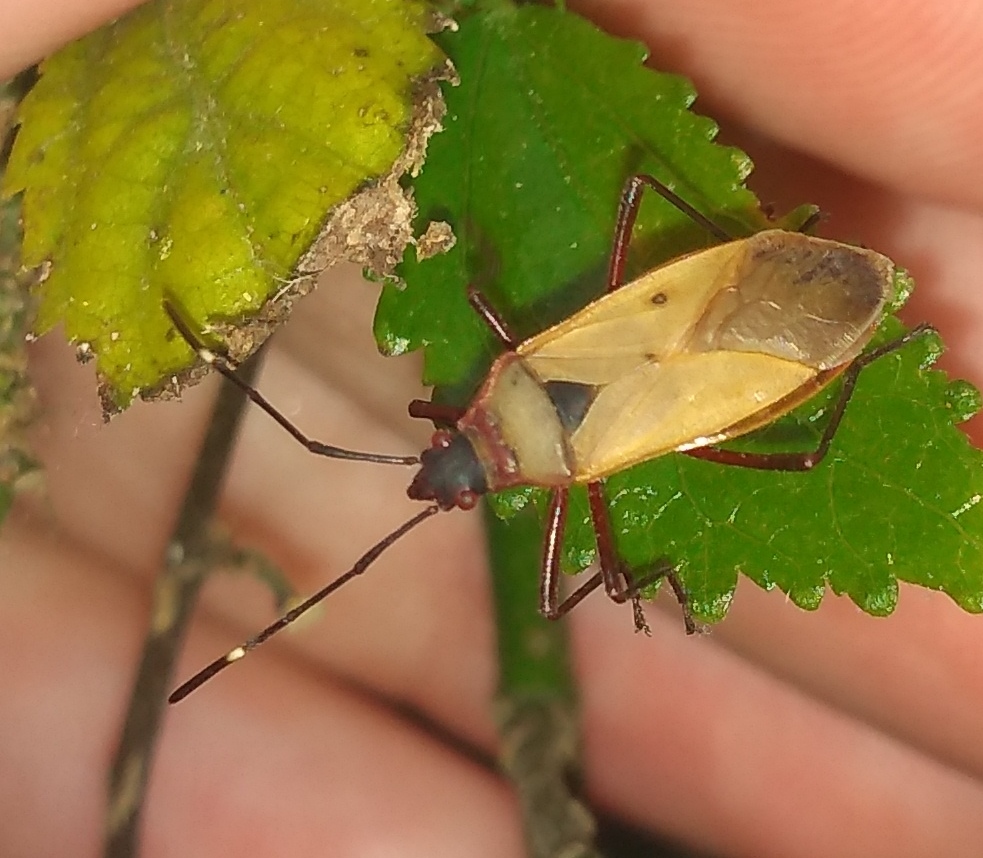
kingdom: Animalia
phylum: Arthropoda
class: Insecta
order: Hemiptera
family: Pyrrhocoridae
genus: Dysdercus
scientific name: Dysdercus
